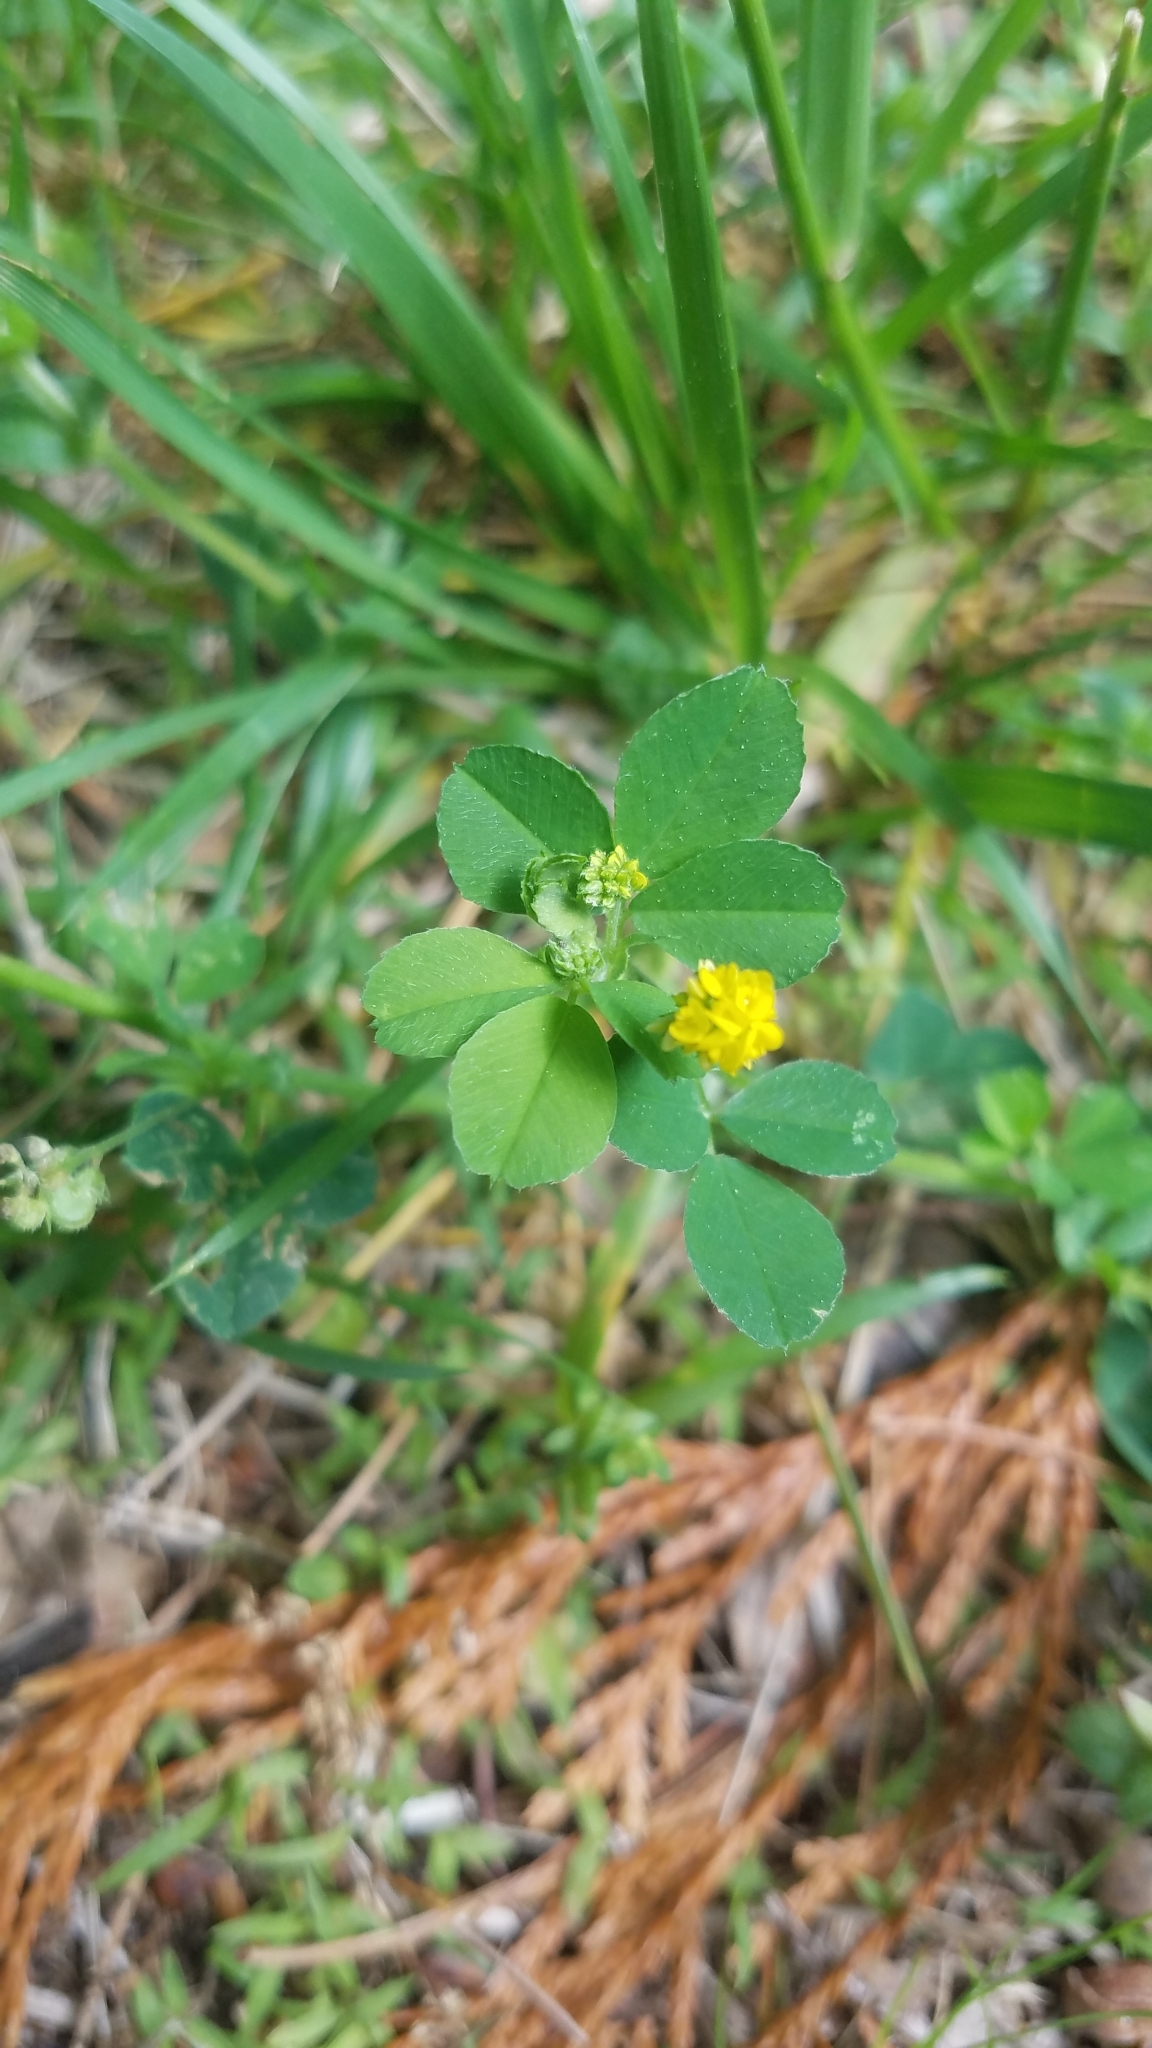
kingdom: Plantae
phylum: Tracheophyta
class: Magnoliopsida
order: Fabales
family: Fabaceae
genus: Medicago
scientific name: Medicago lupulina
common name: Black medick
